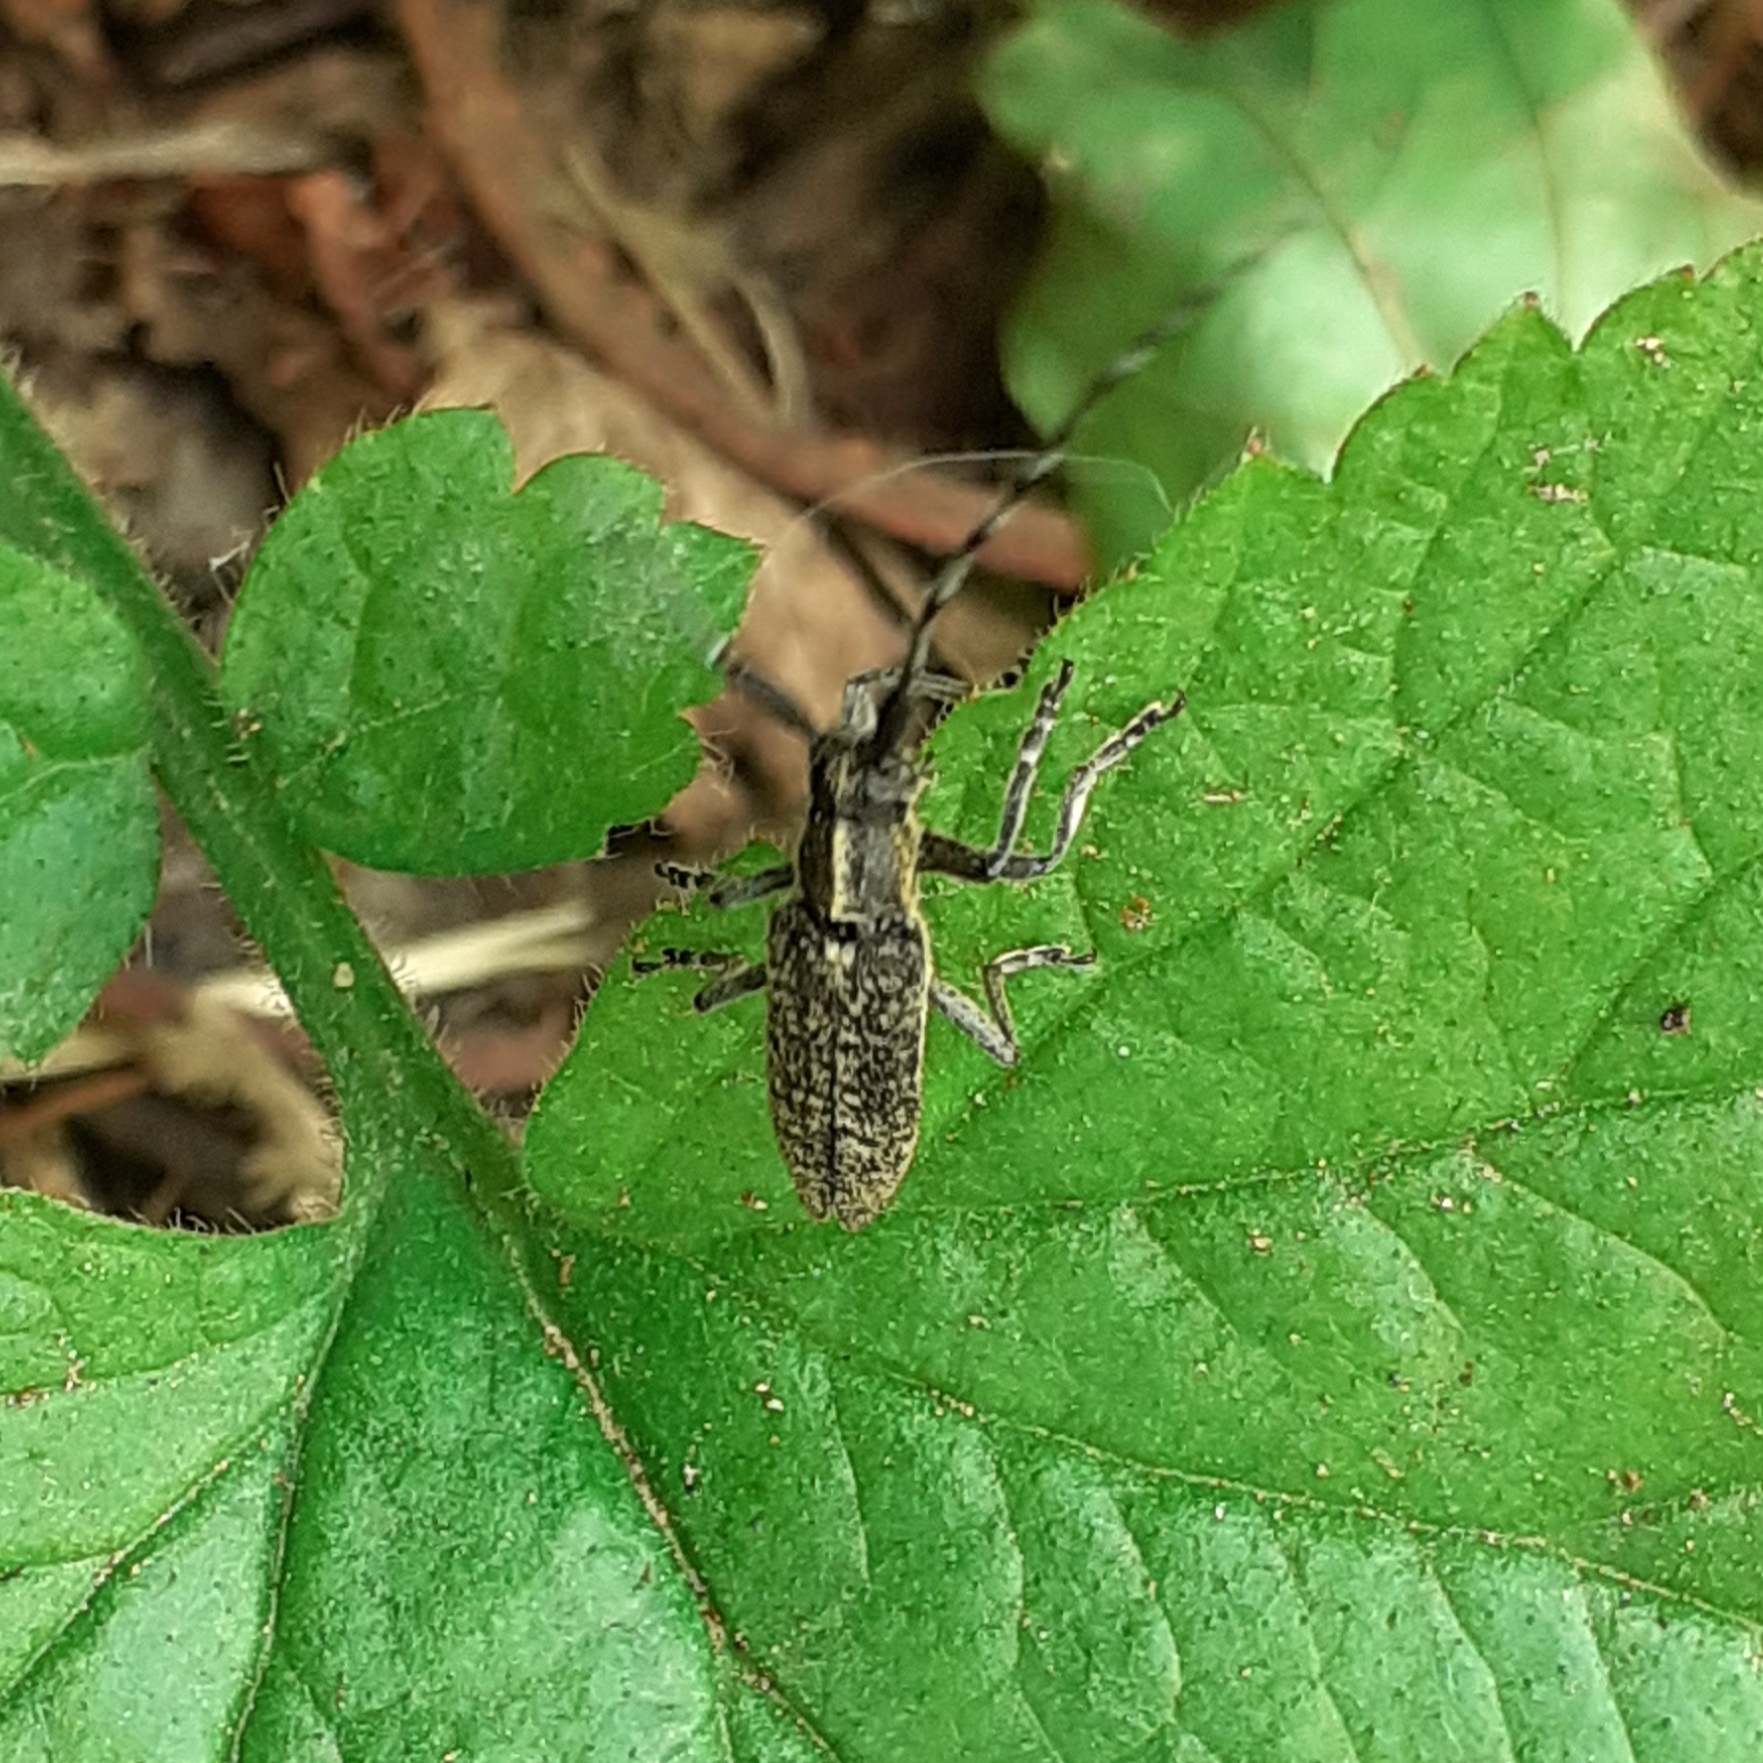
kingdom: Animalia
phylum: Arthropoda
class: Insecta
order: Coleoptera
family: Cerambycidae
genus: Agapanthia
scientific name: Agapanthia villosoviridescens
